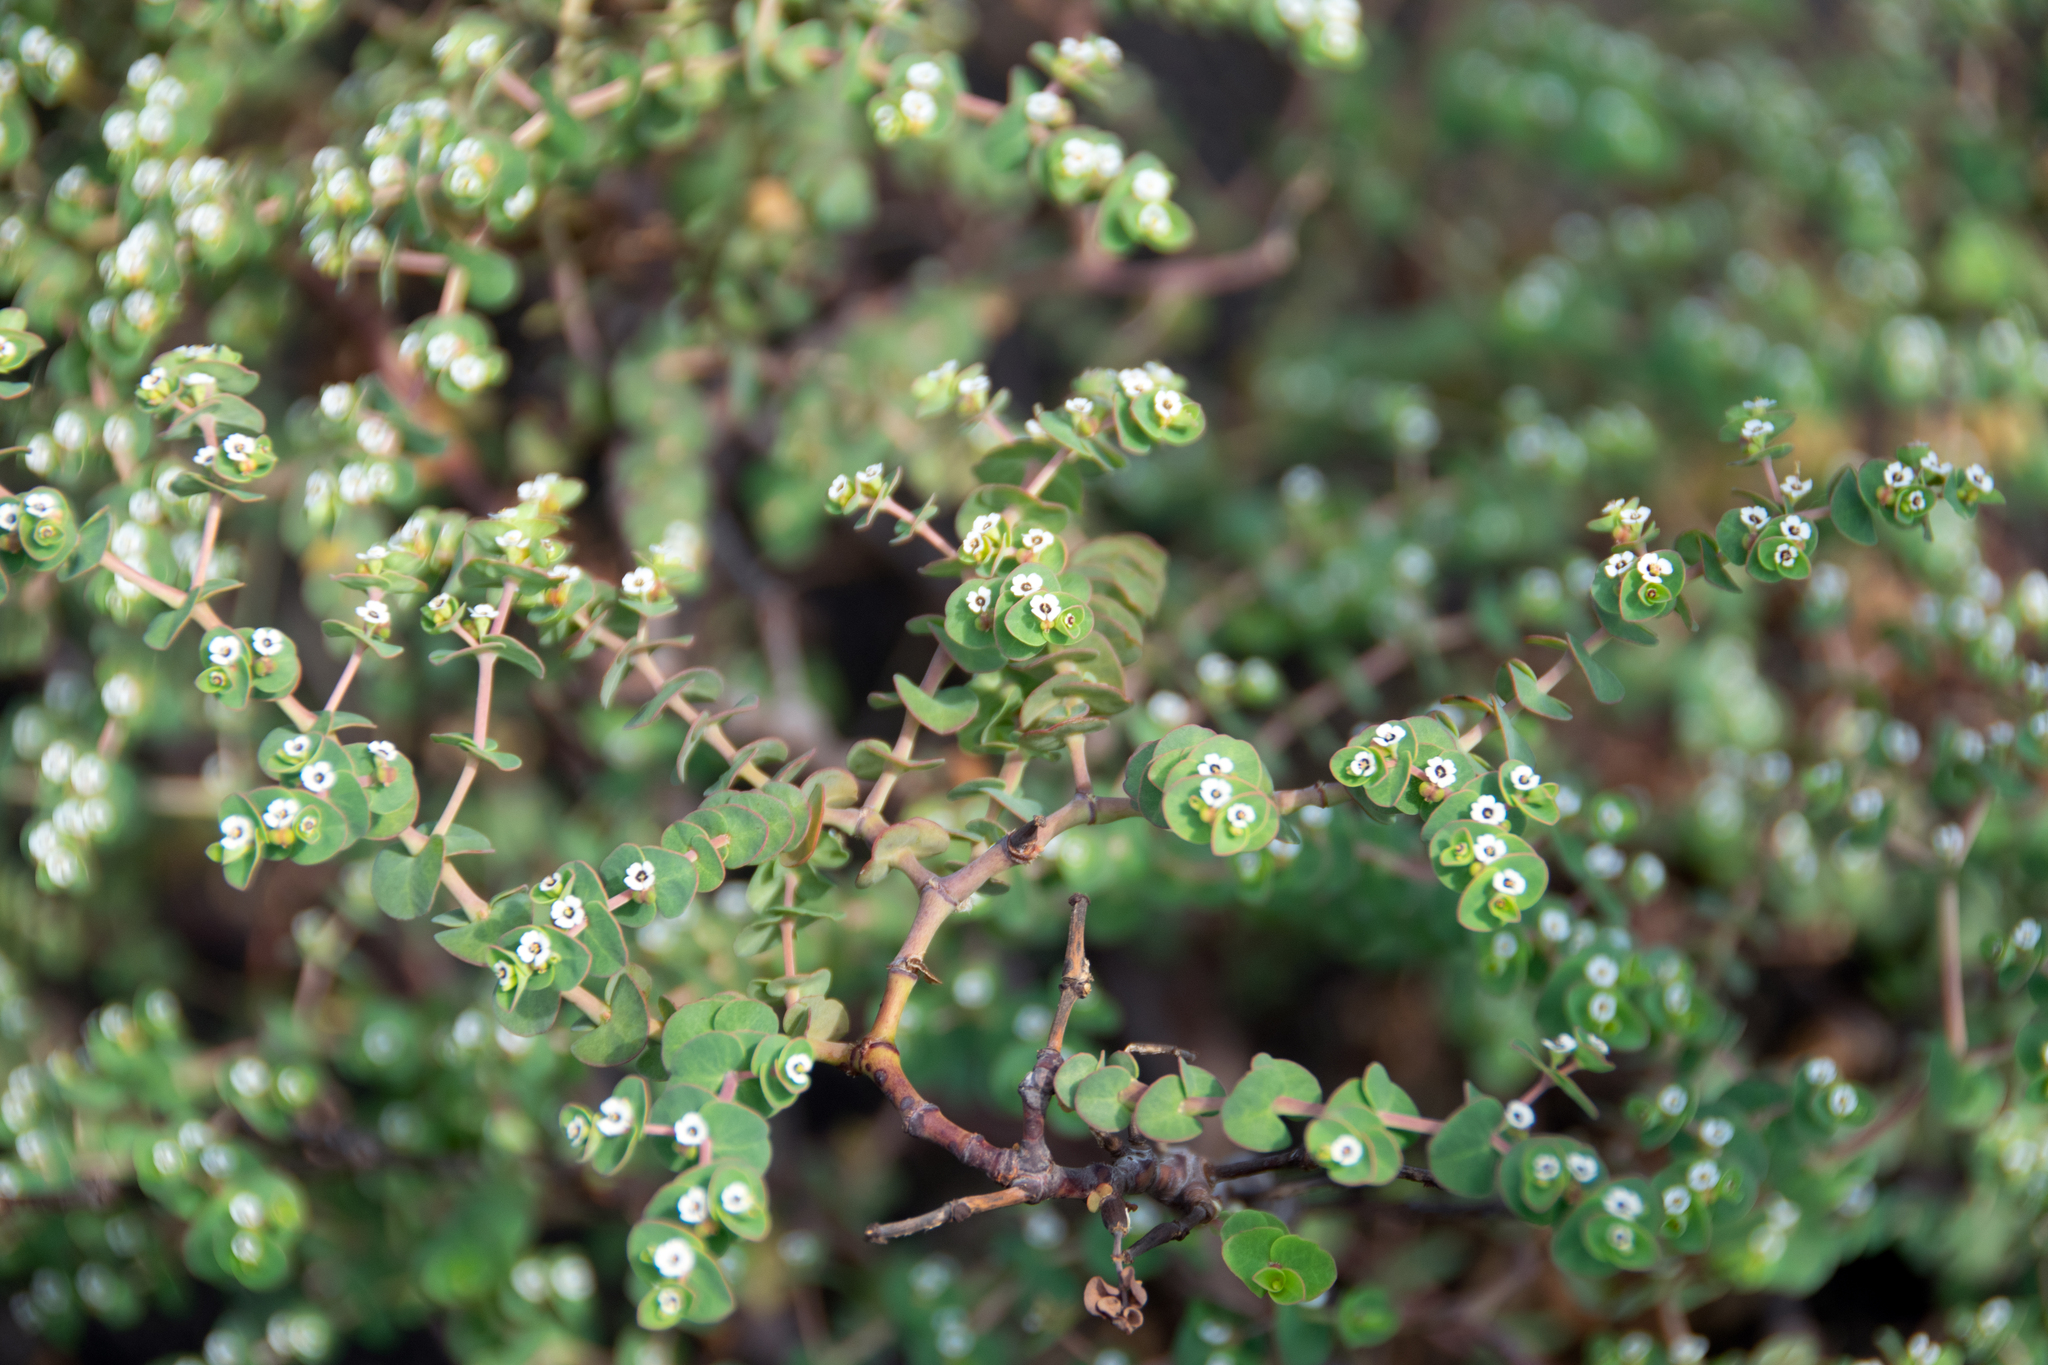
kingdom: Plantae
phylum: Tracheophyta
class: Magnoliopsida
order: Malpighiales
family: Euphorbiaceae
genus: Euphorbia
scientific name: Euphorbia amplexicaulis
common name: Chamaesyce
